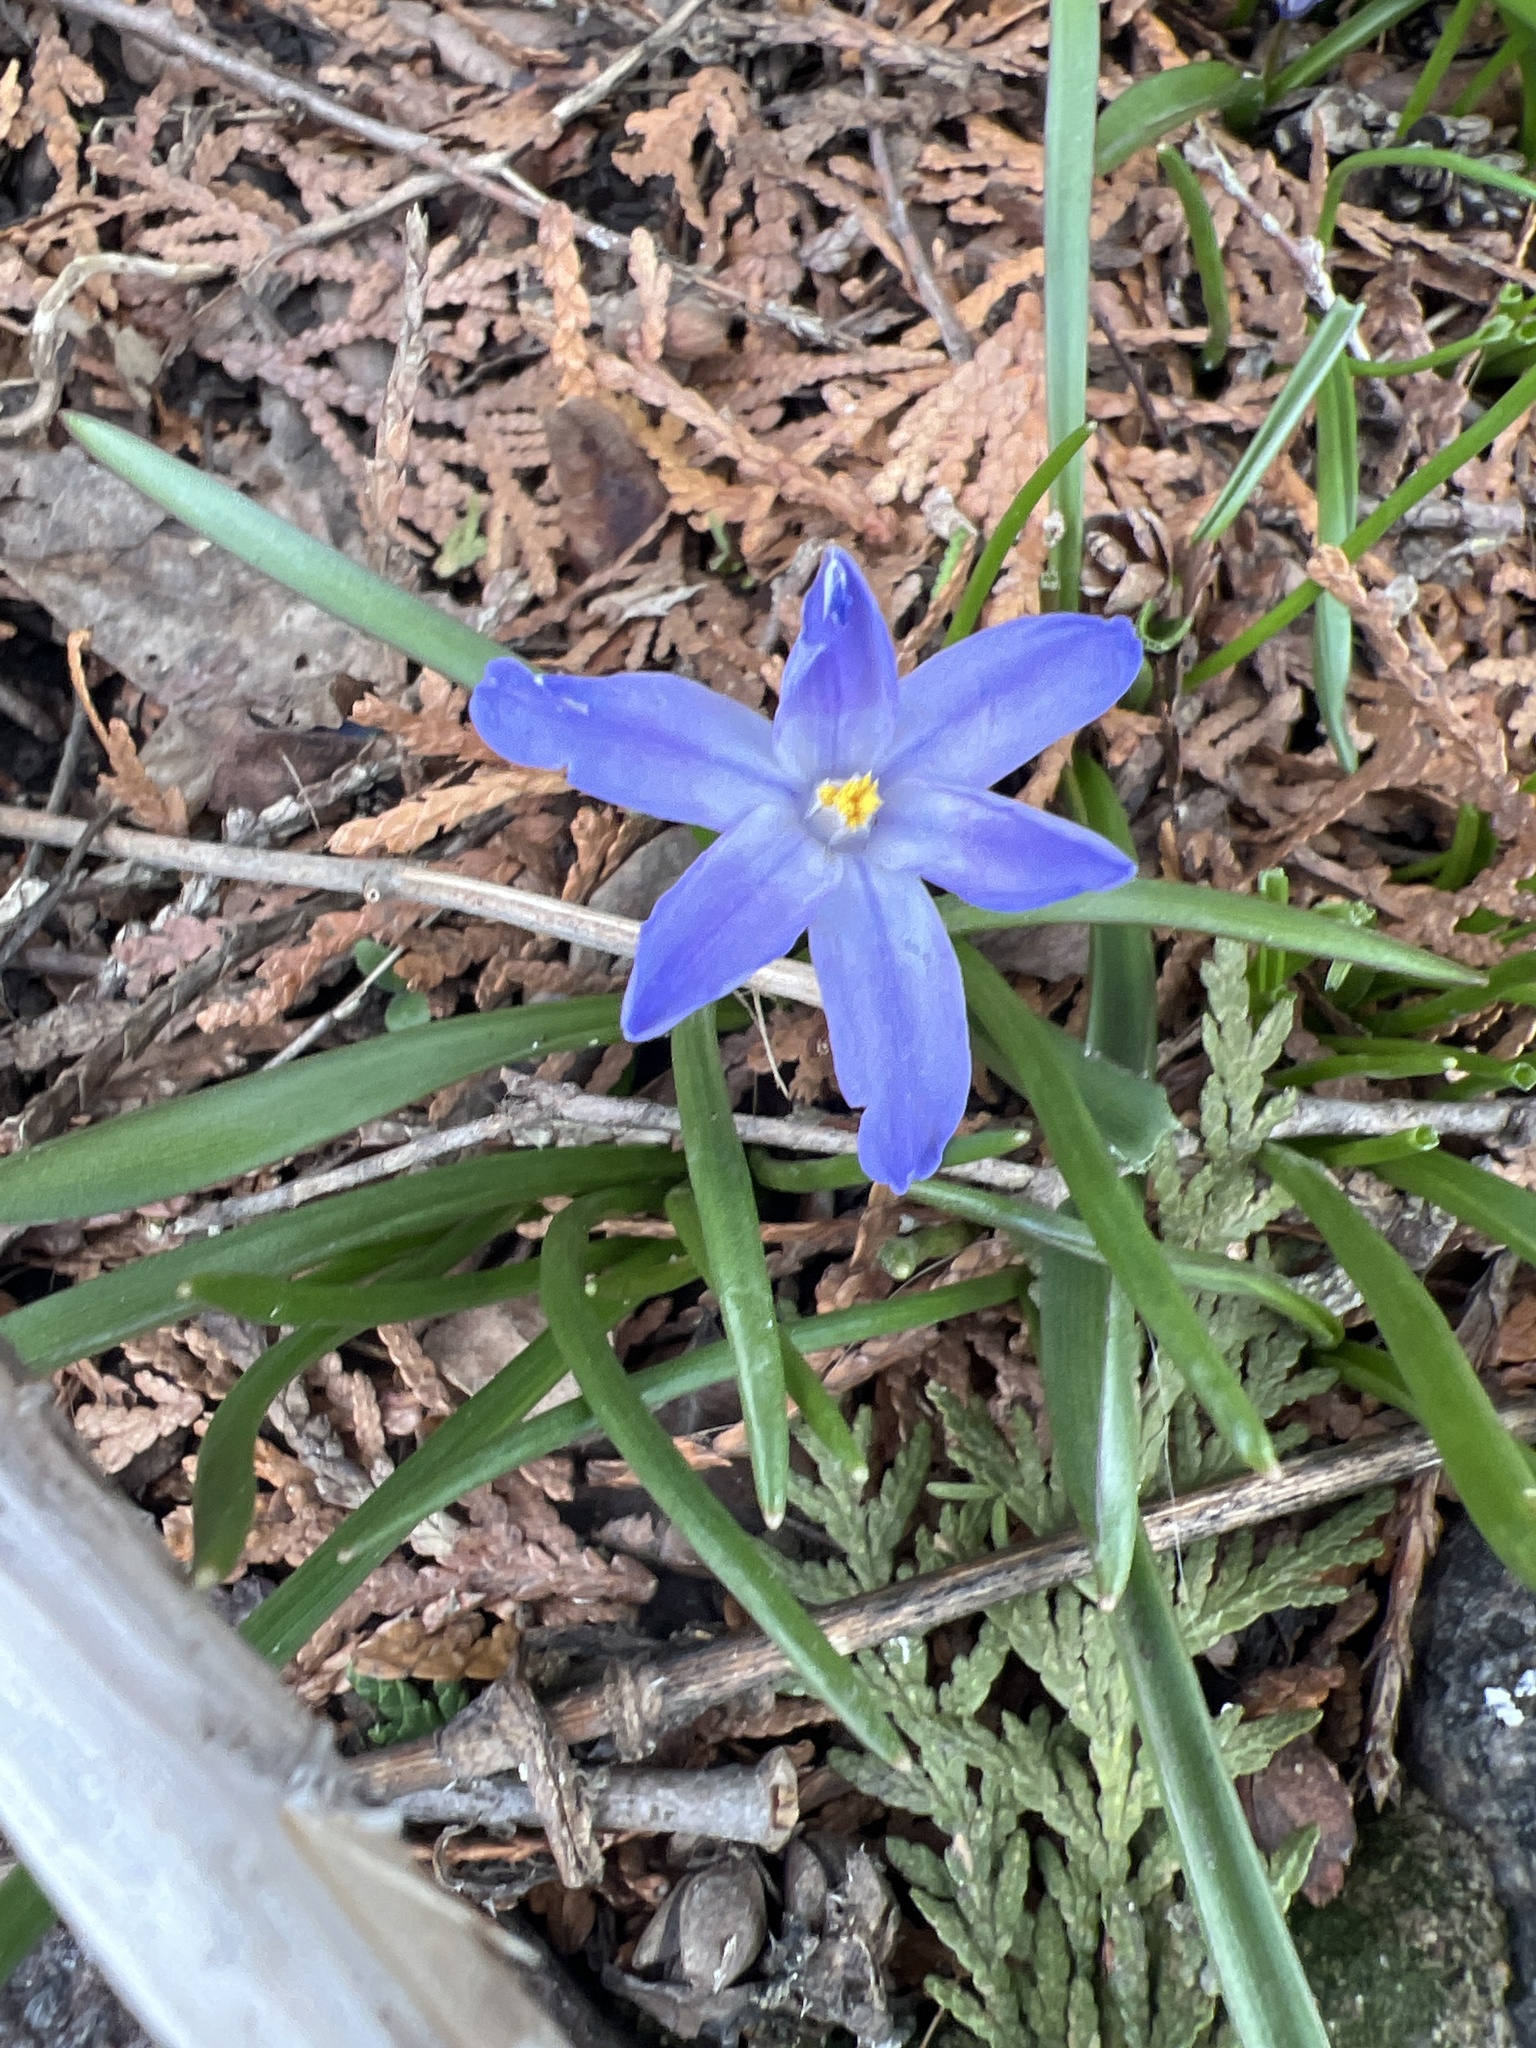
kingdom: Plantae
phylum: Tracheophyta
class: Liliopsida
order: Asparagales
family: Asparagaceae
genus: Scilla
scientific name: Scilla luciliae
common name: Boissier's glory-of-the-snow
